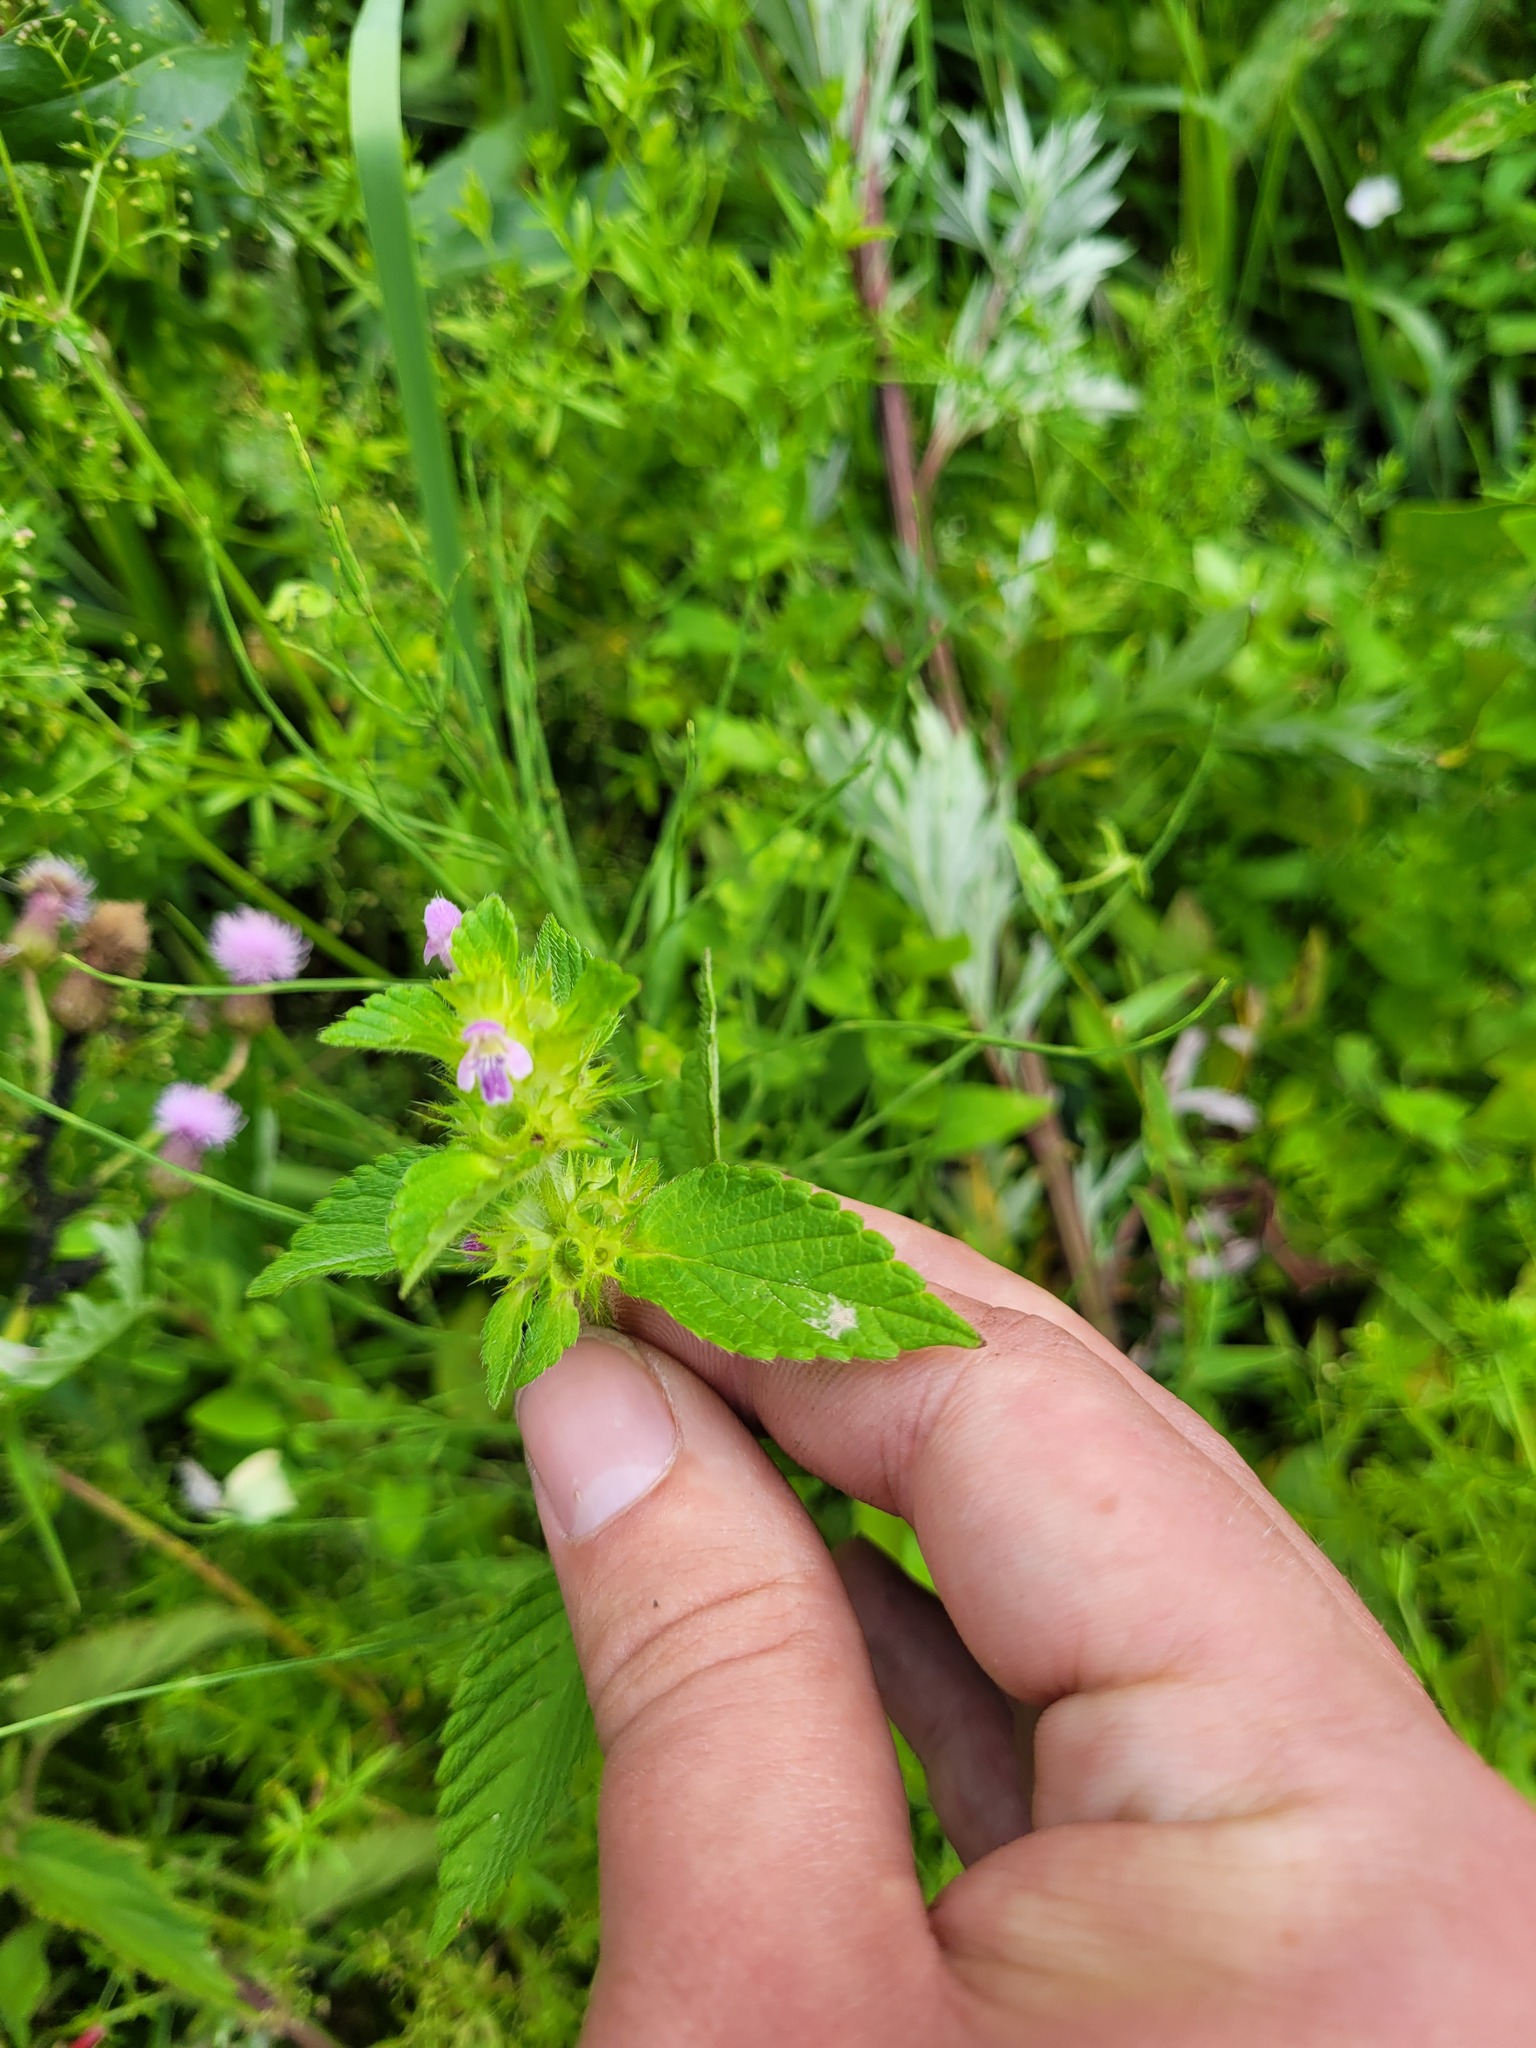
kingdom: Plantae
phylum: Tracheophyta
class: Magnoliopsida
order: Lamiales
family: Lamiaceae
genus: Galeopsis
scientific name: Galeopsis bifida
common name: Bifid hemp-nettle
